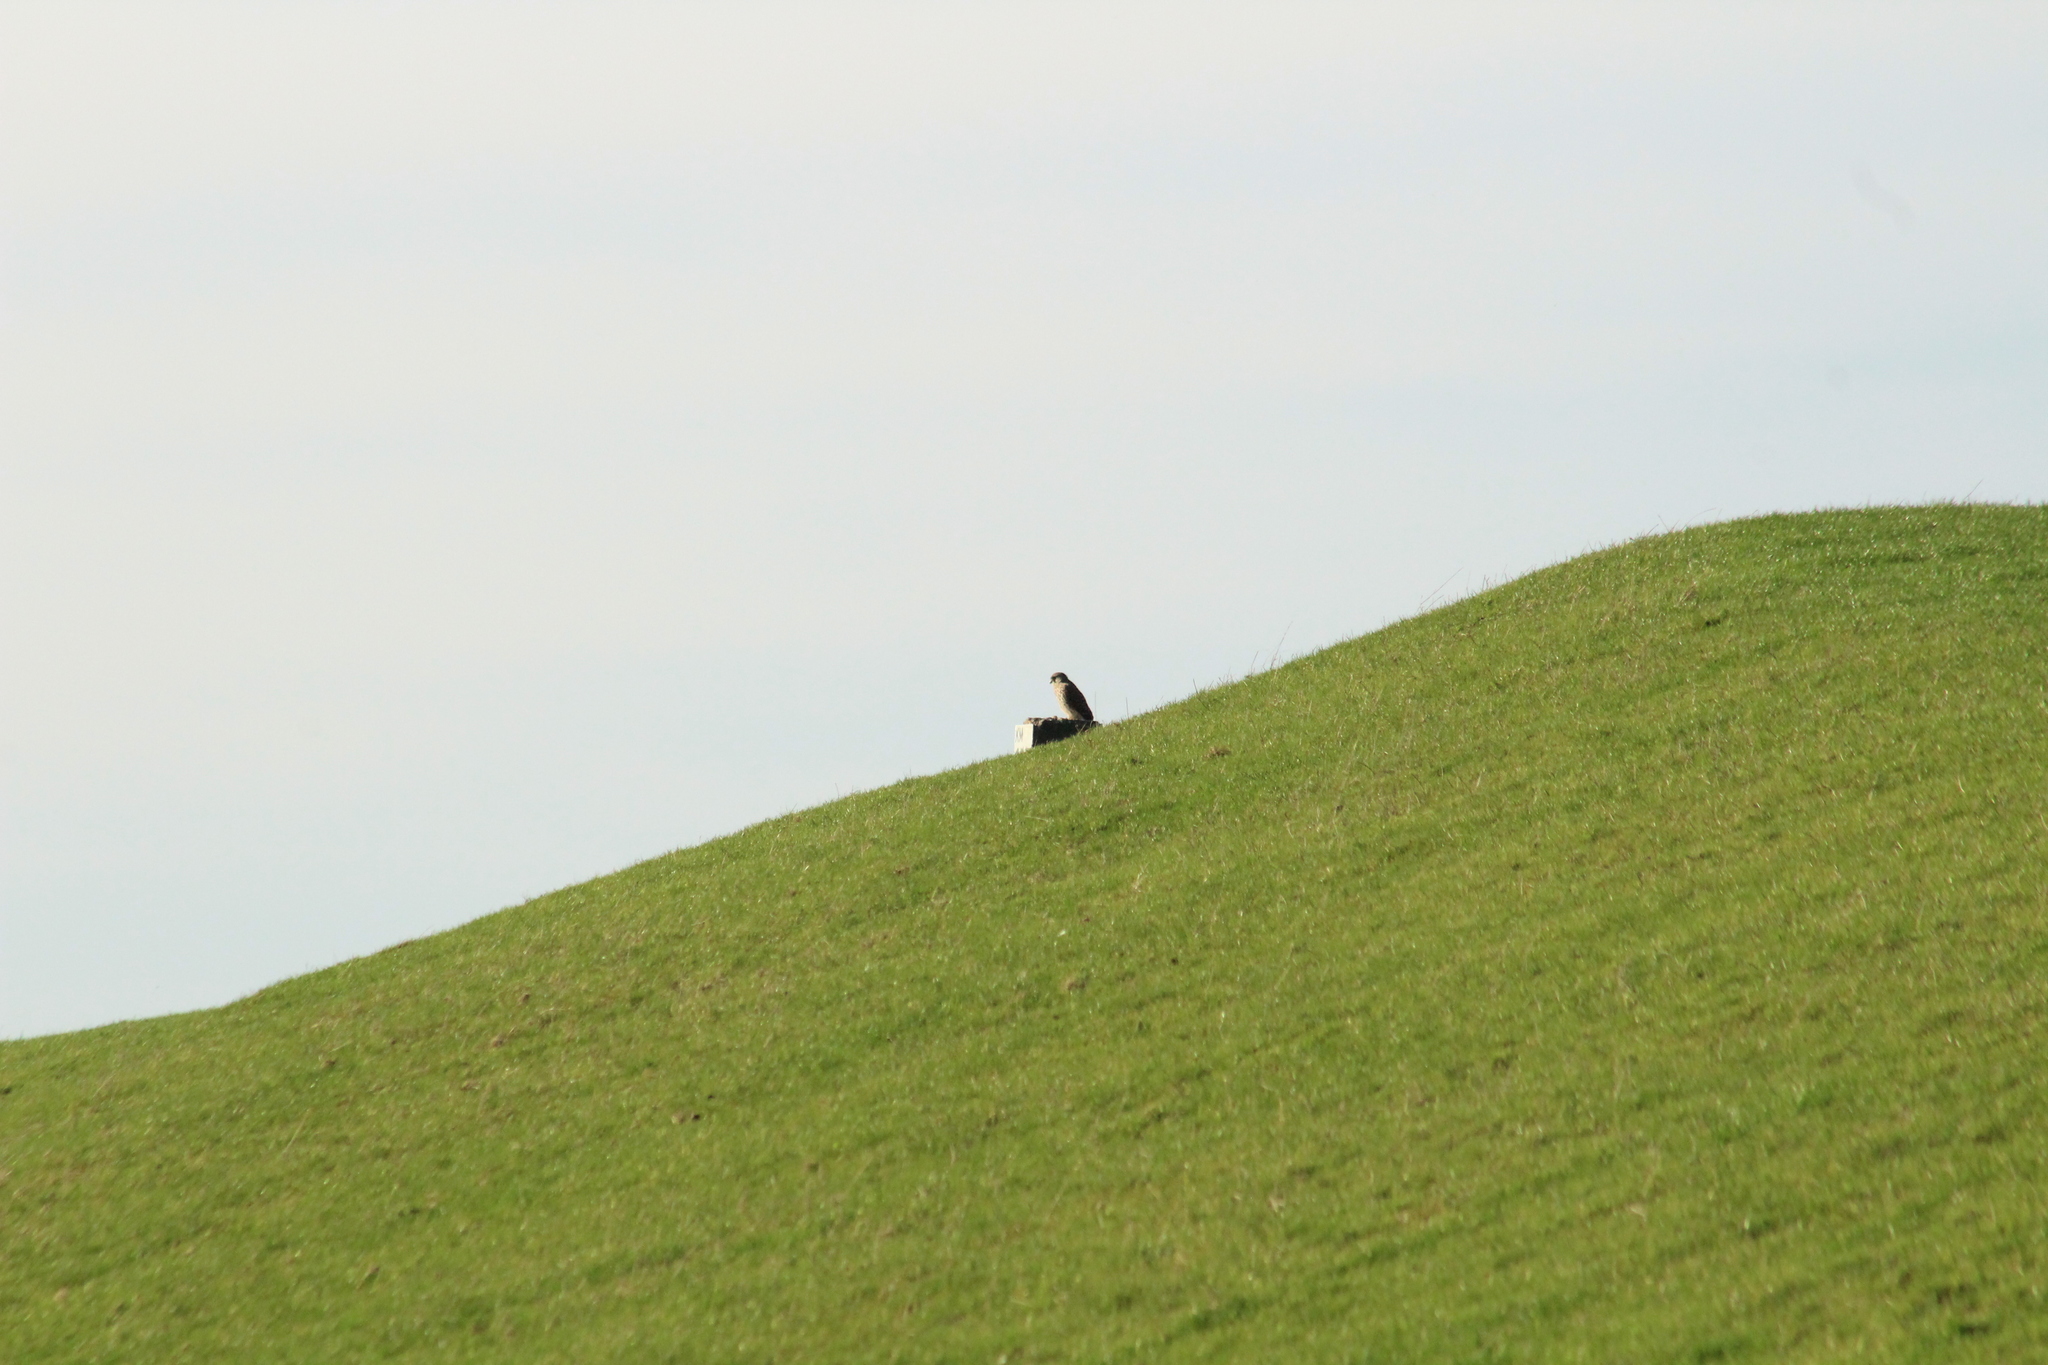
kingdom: Animalia
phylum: Chordata
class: Aves
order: Falconiformes
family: Falconidae
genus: Falco
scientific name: Falco tinnunculus
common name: Common kestrel
